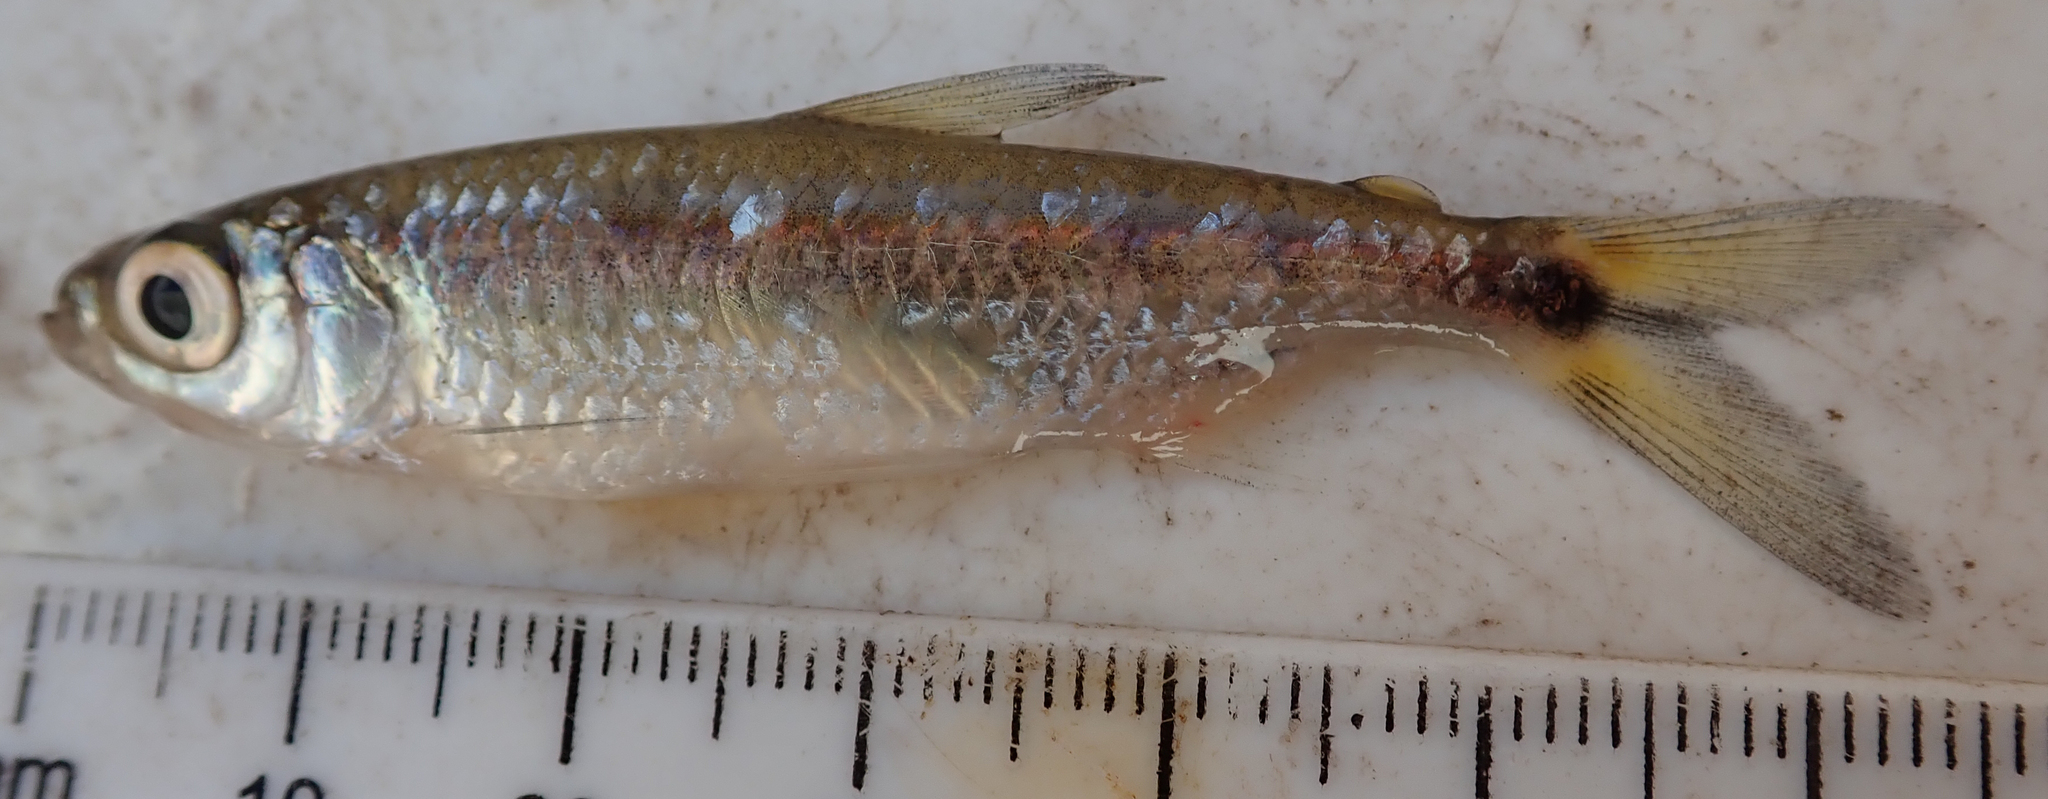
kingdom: Animalia
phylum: Chordata
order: Characiformes
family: Alestidae
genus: Alestes
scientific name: Alestes
